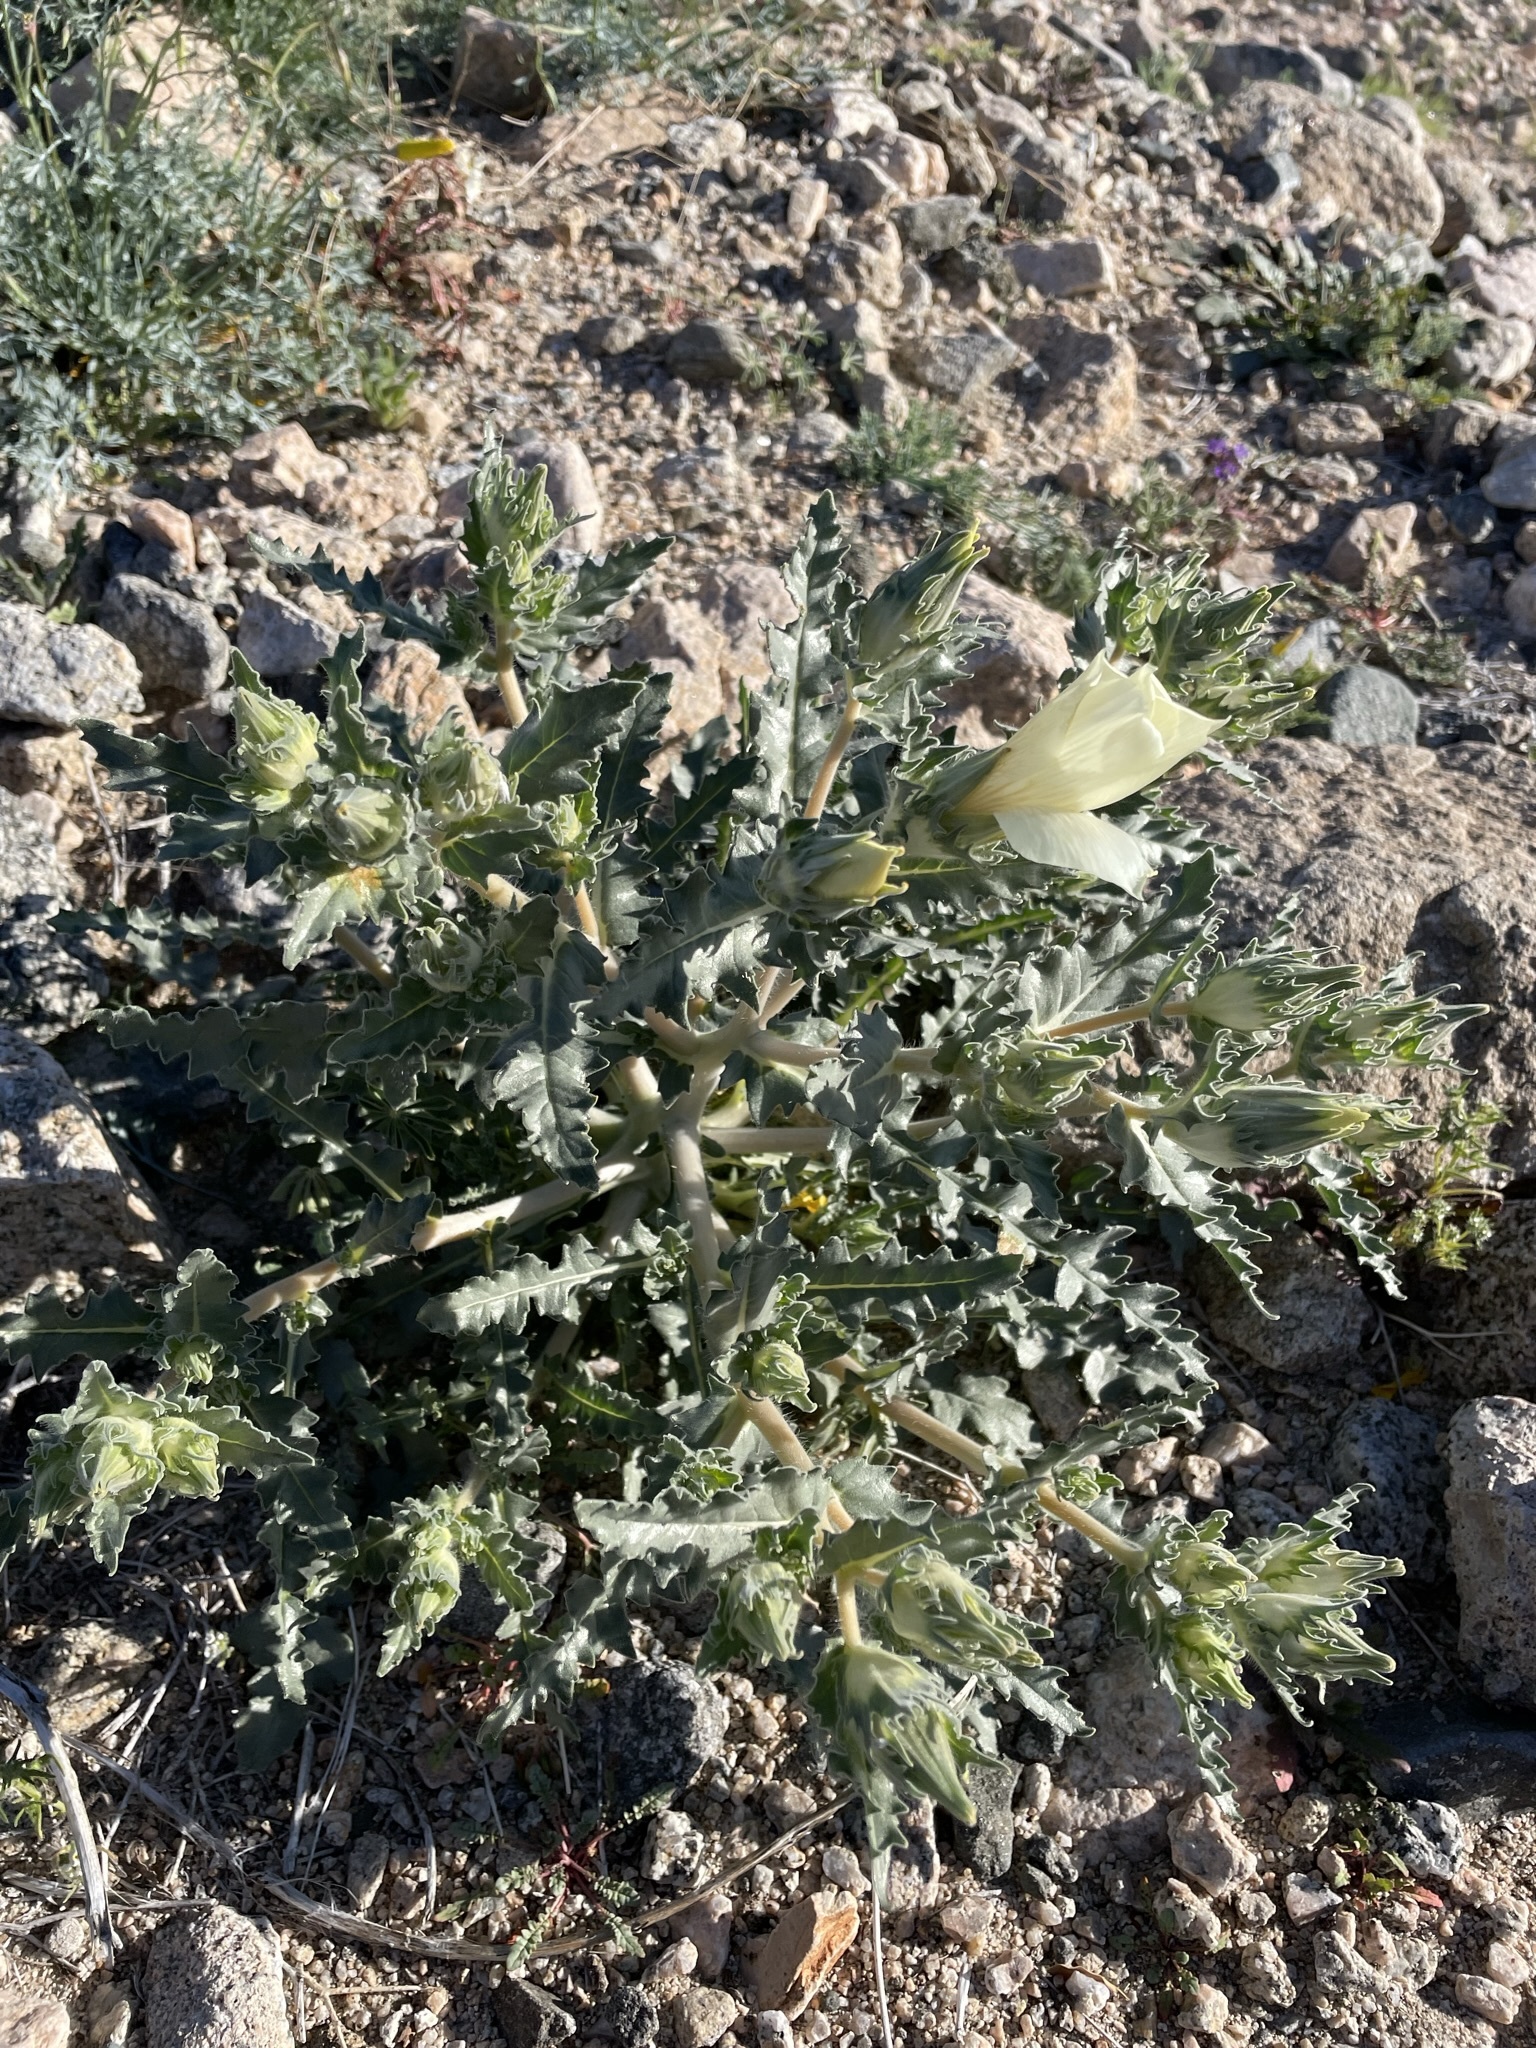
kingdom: Plantae
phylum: Tracheophyta
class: Magnoliopsida
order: Cornales
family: Loasaceae
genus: Mentzelia
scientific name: Mentzelia involucrata
